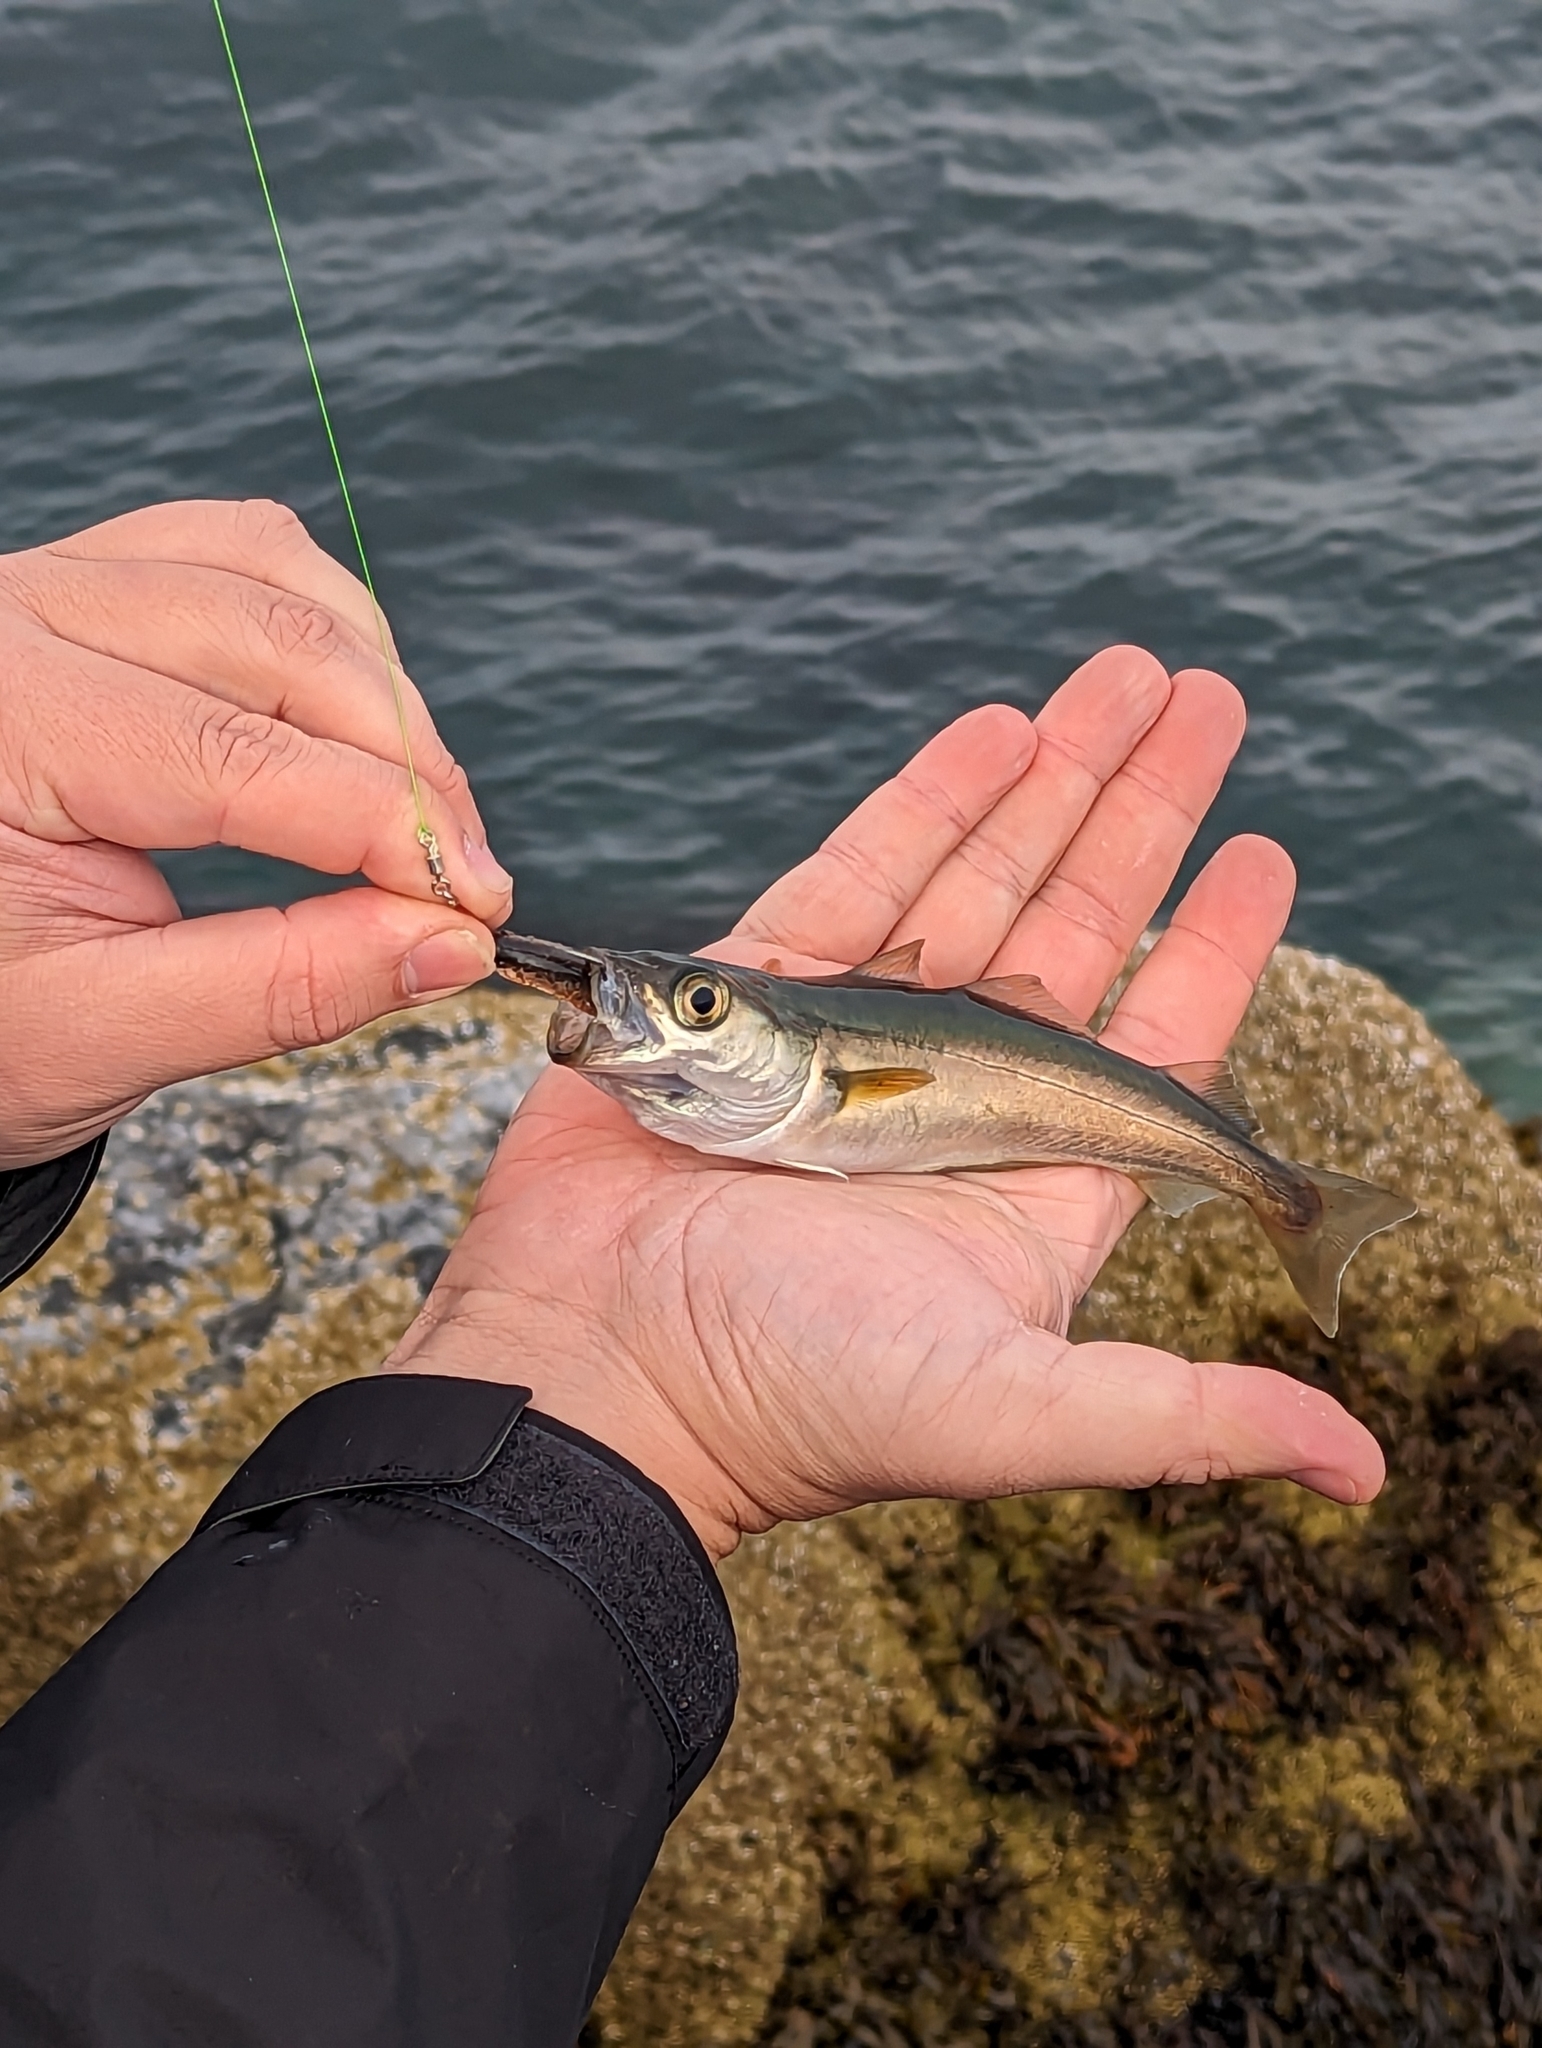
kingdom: Animalia
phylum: Chordata
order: Gadiformes
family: Gadidae
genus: Pollachius
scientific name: Pollachius virens
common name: Saithe
